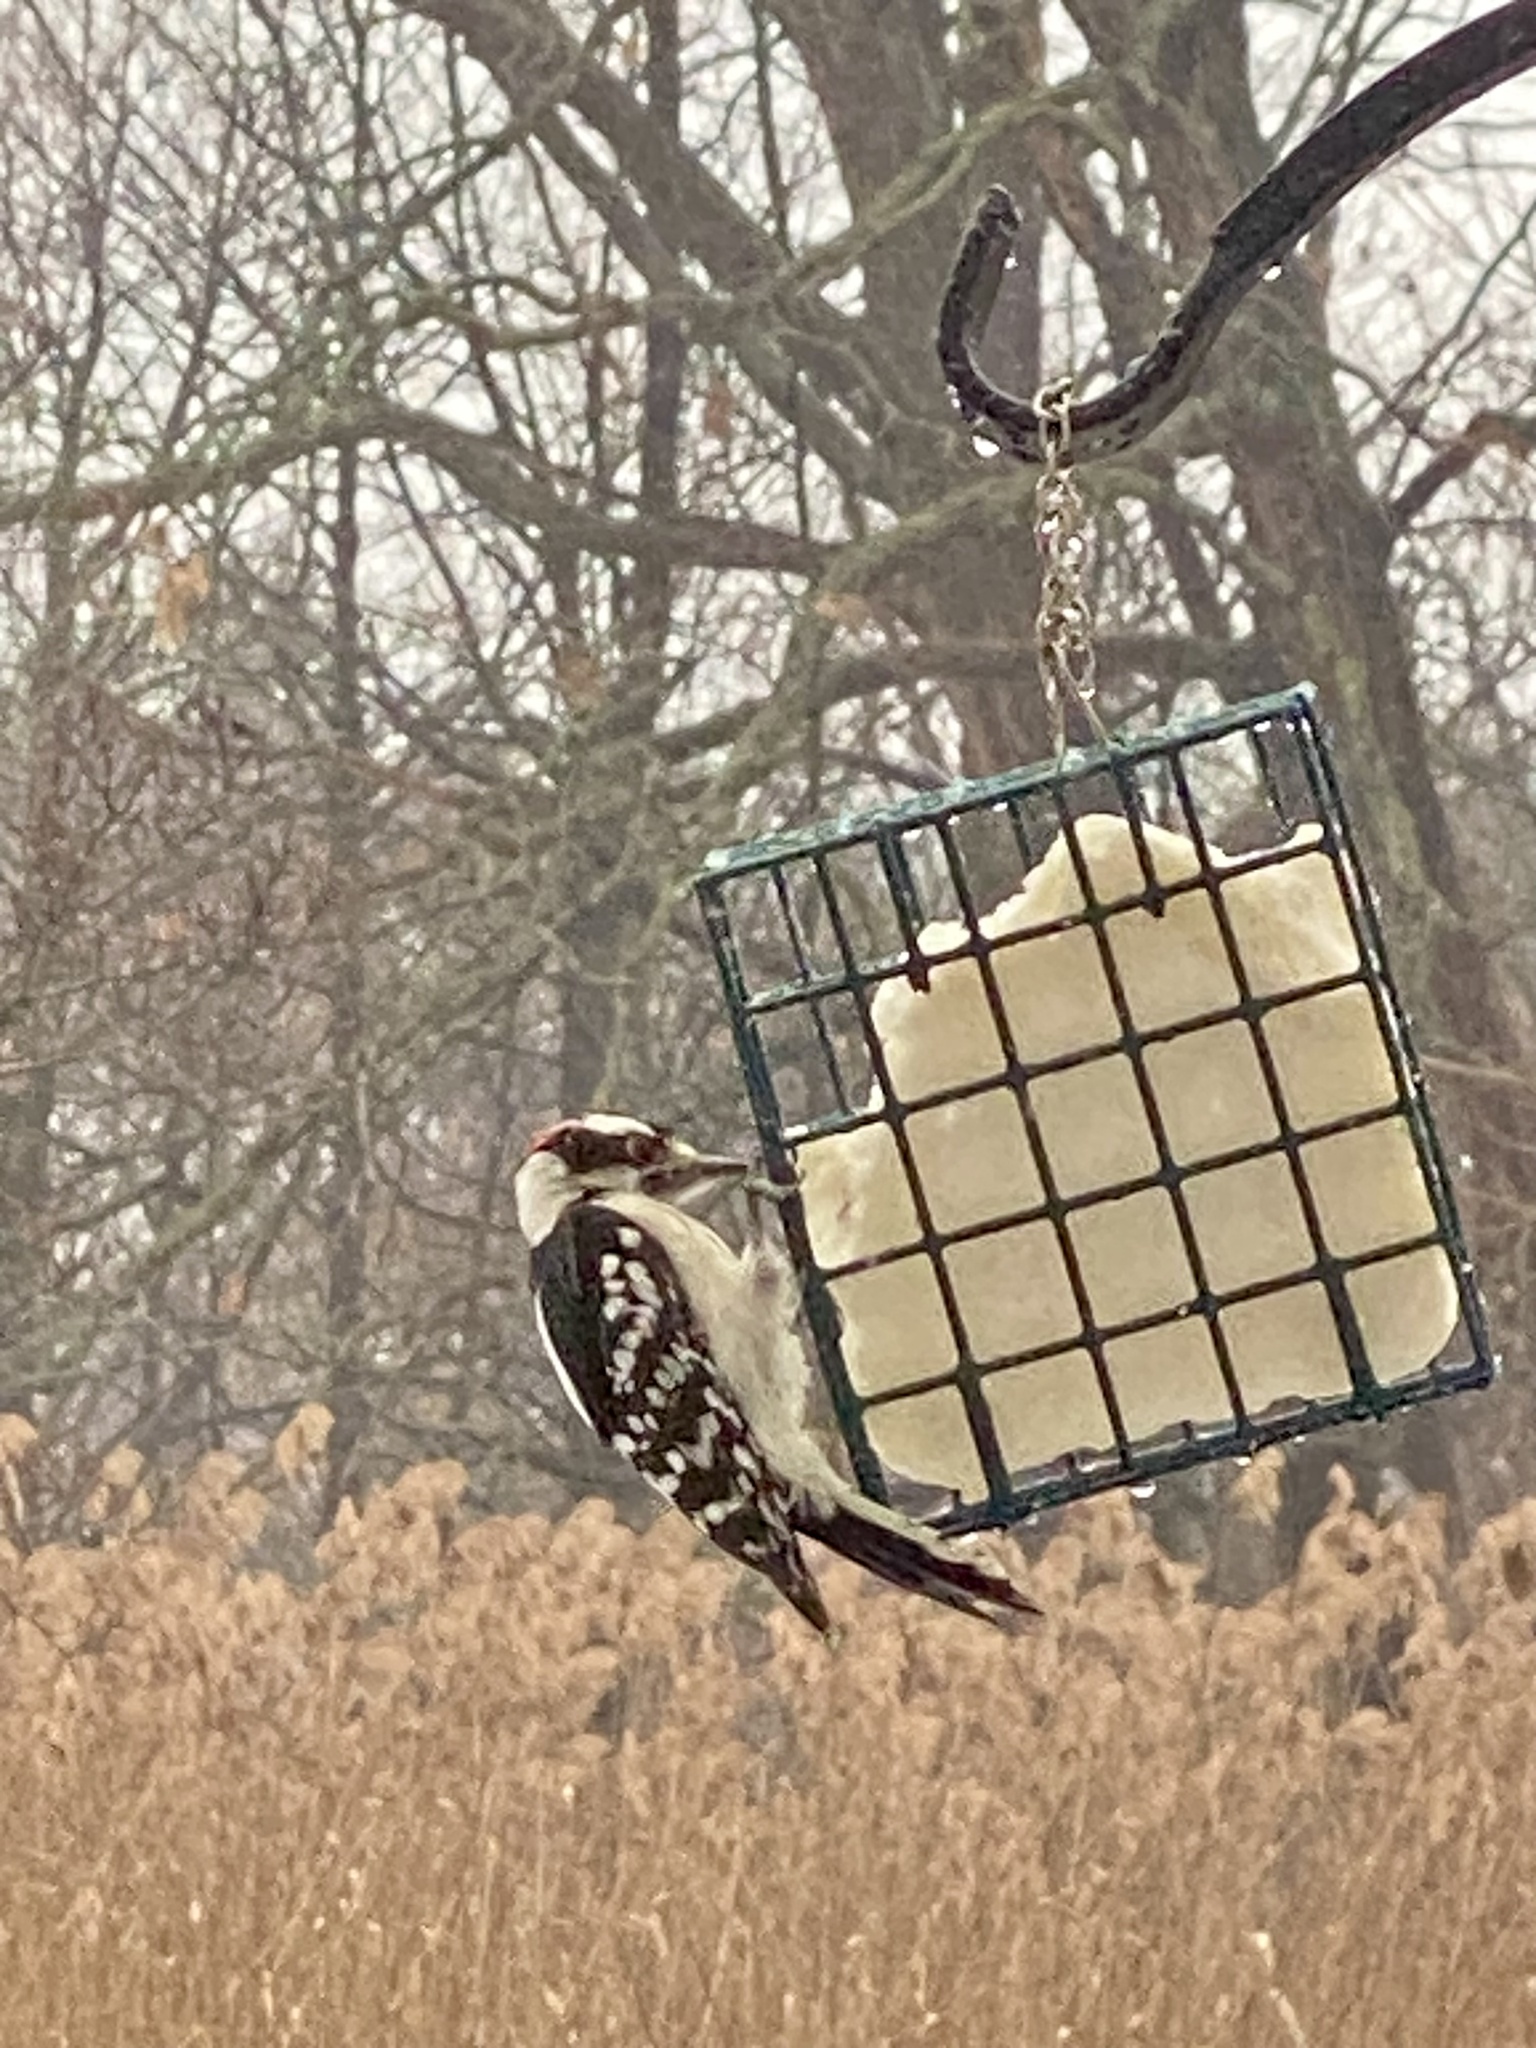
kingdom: Animalia
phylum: Chordata
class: Aves
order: Piciformes
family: Picidae
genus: Dryobates
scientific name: Dryobates pubescens
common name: Downy woodpecker
